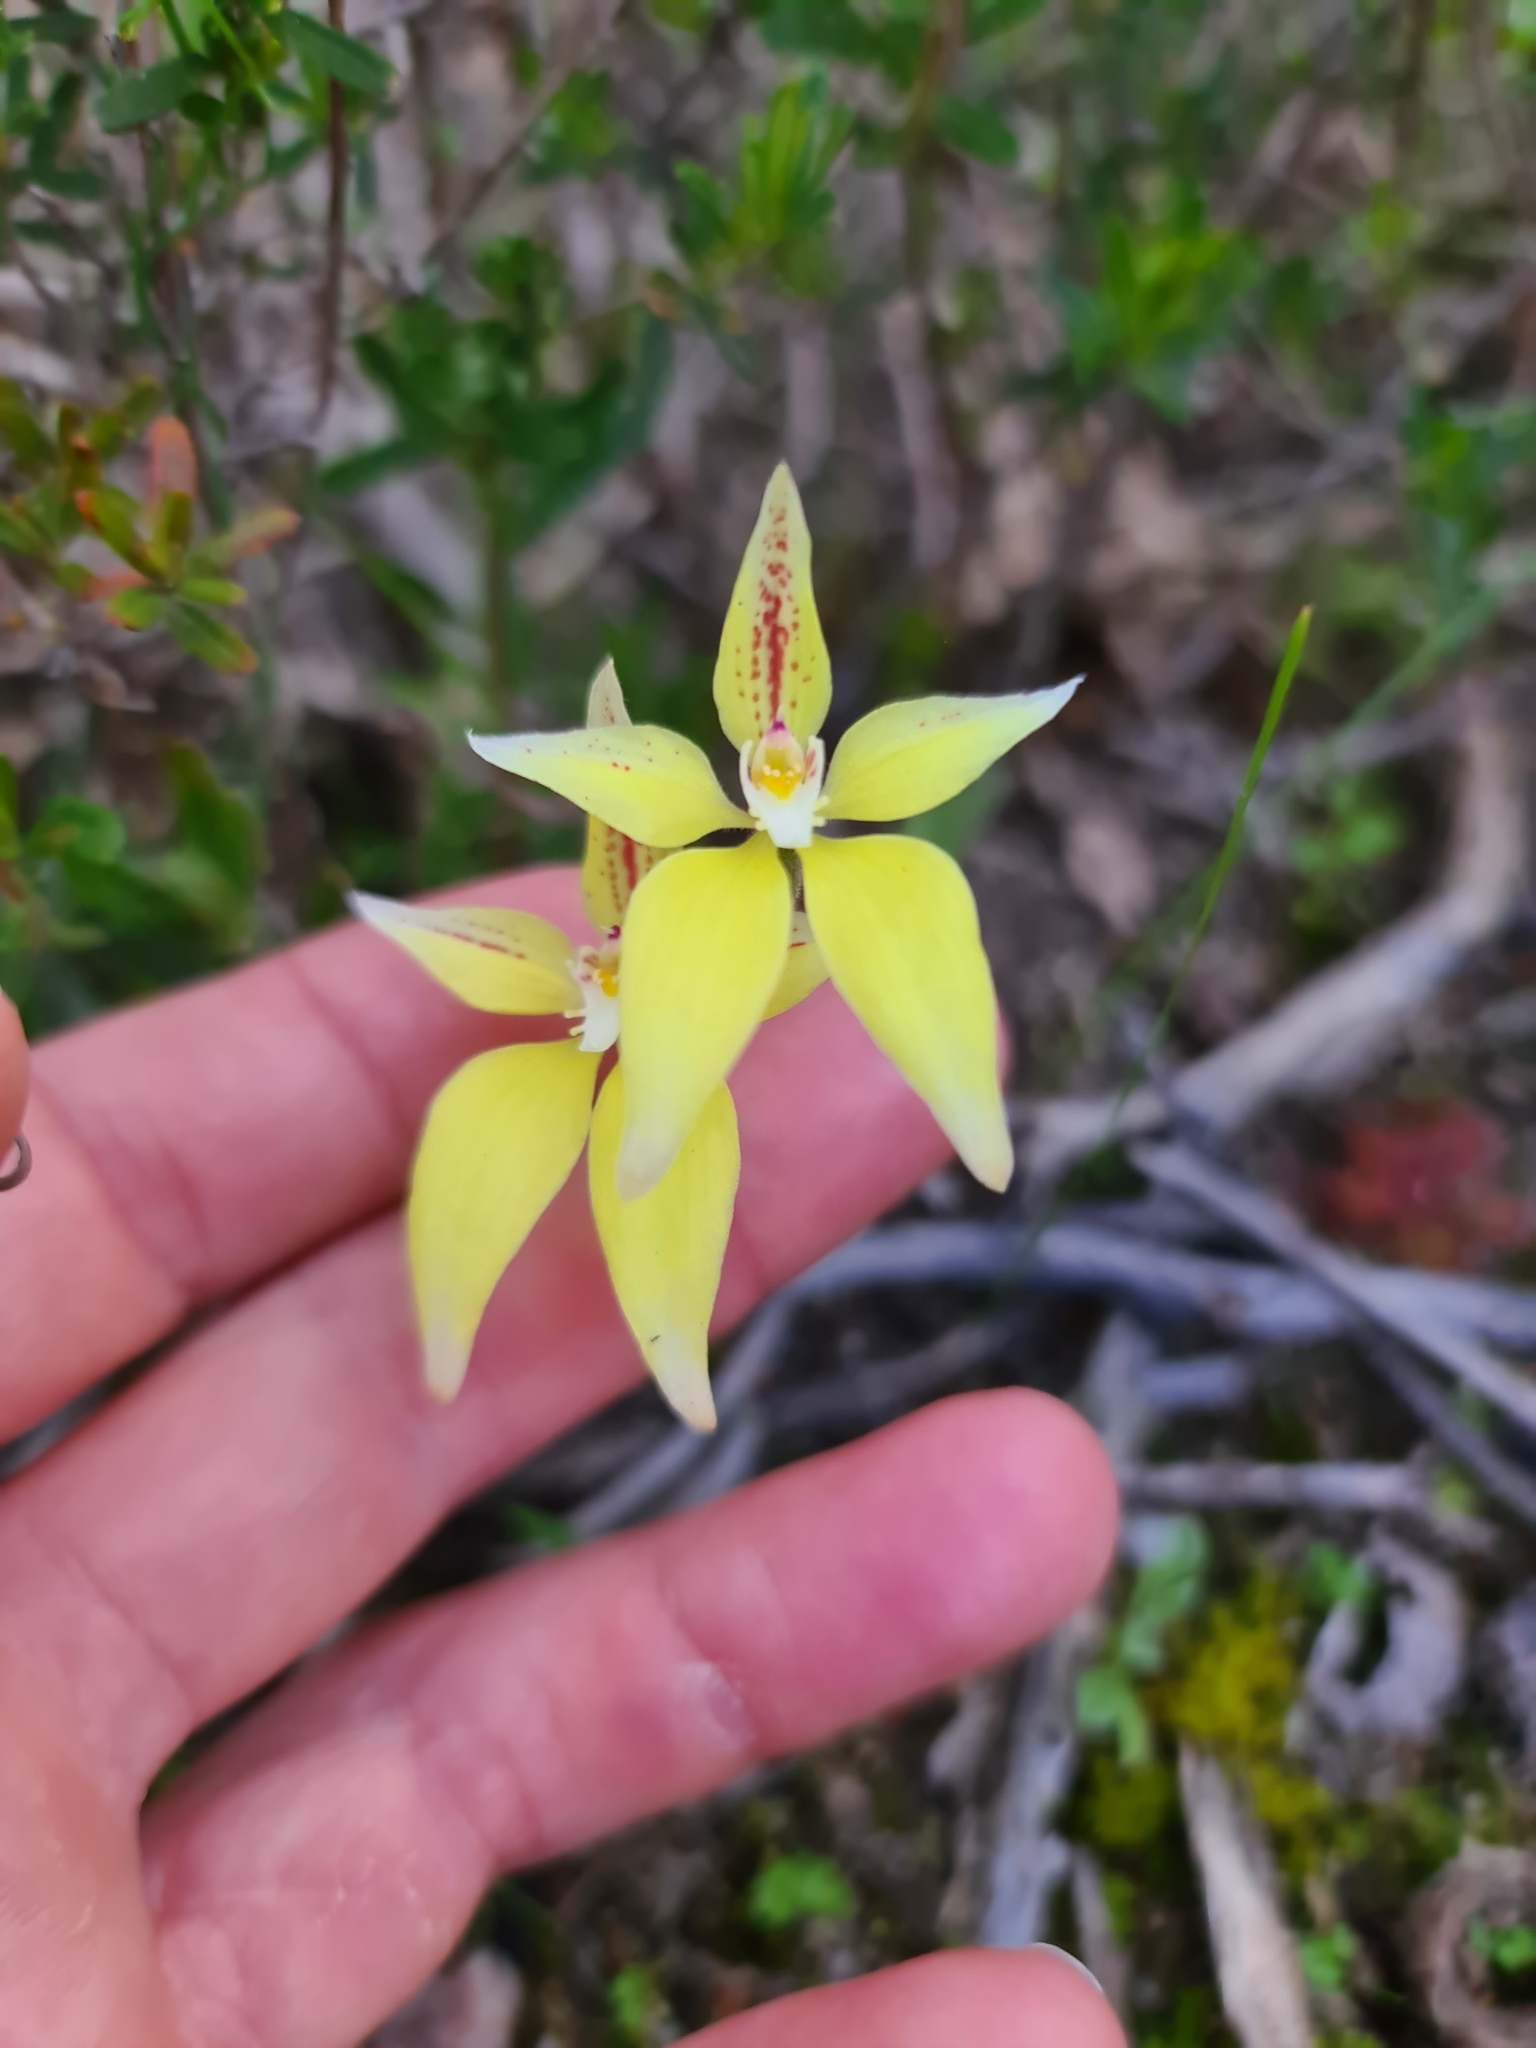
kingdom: Plantae
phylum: Tracheophyta
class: Liliopsida
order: Asparagales
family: Orchidaceae
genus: Caladenia
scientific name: Caladenia flava
